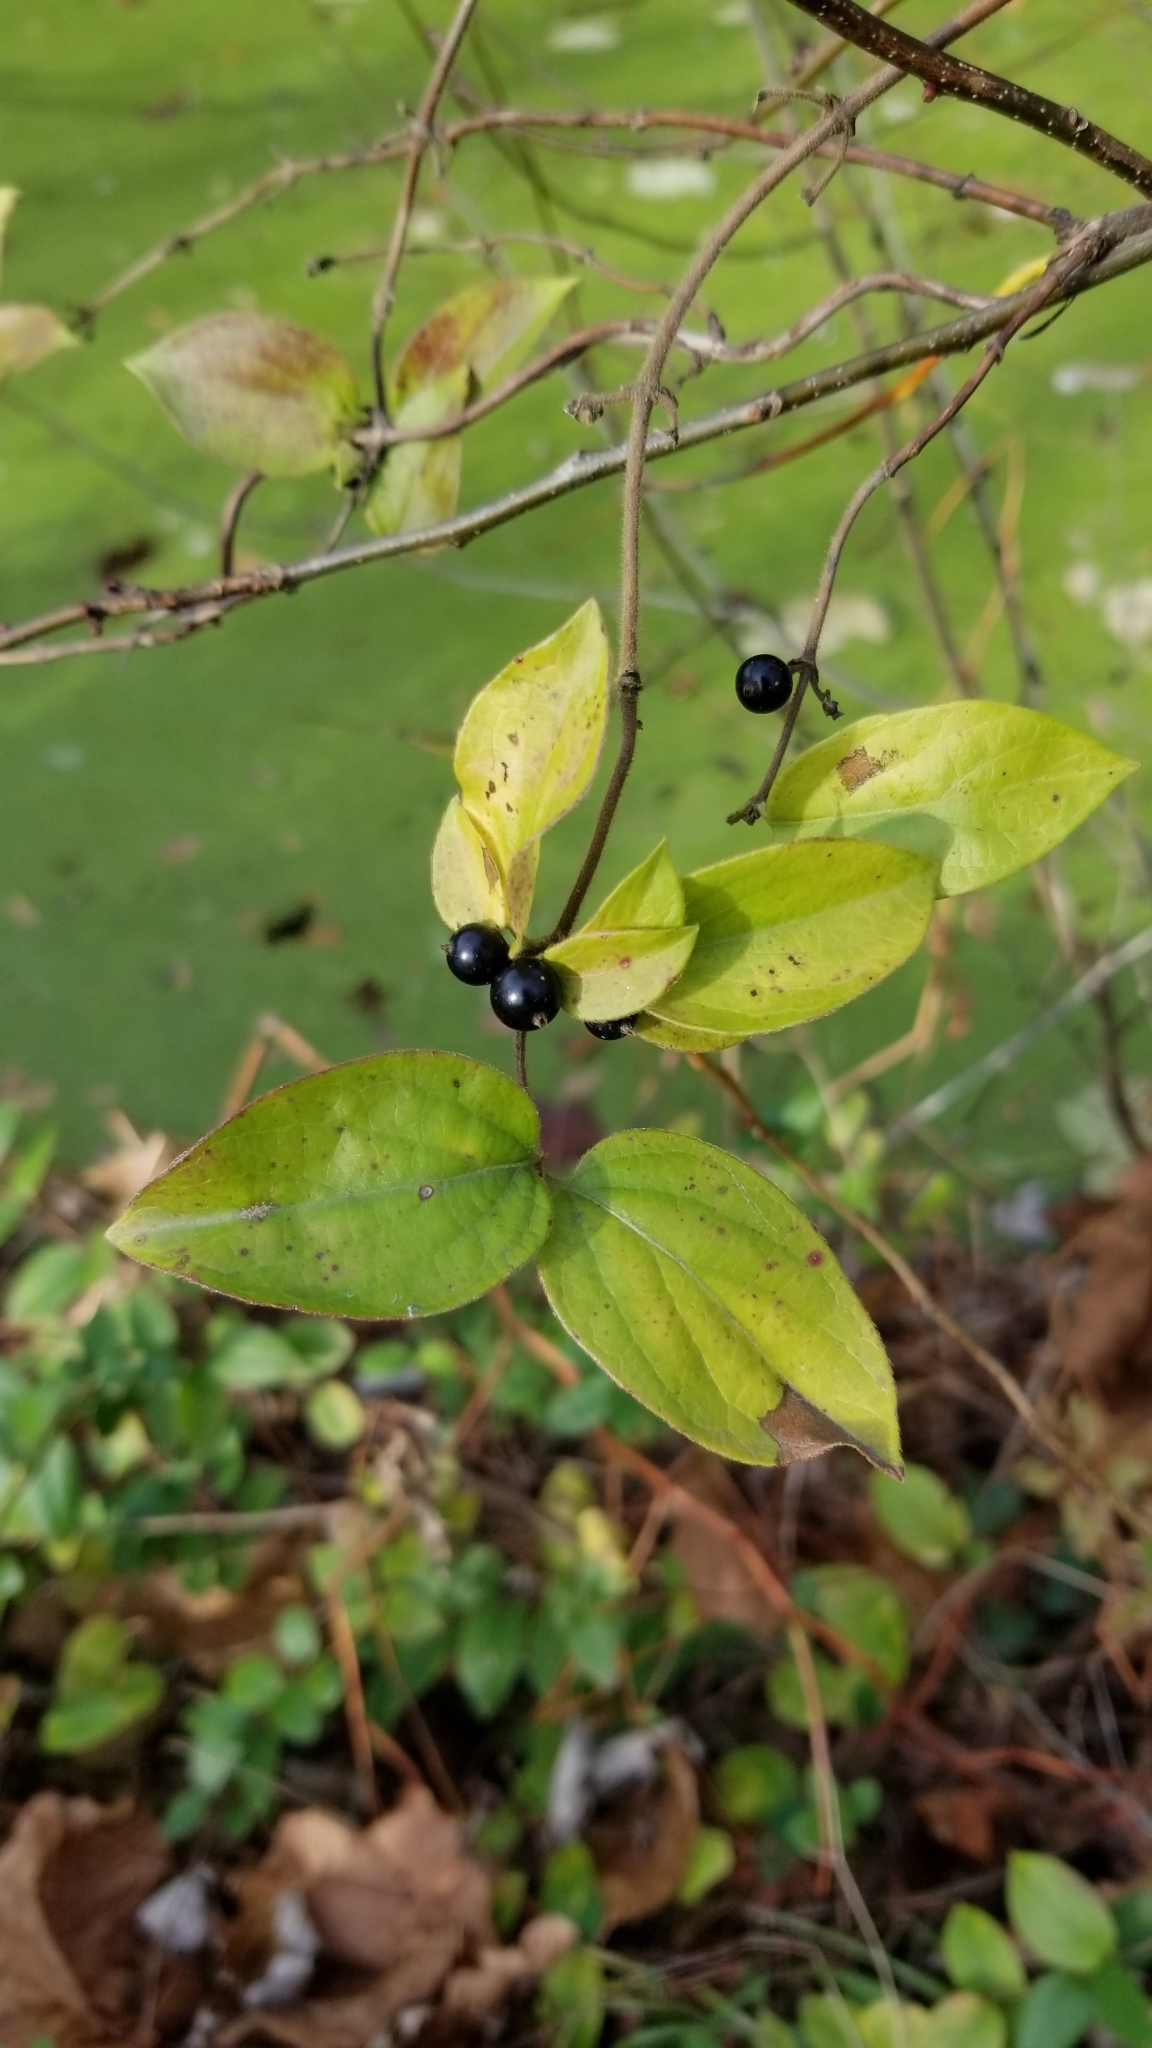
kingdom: Plantae
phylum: Tracheophyta
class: Magnoliopsida
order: Dipsacales
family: Caprifoliaceae
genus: Lonicera
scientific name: Lonicera japonica
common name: Japanese honeysuckle
